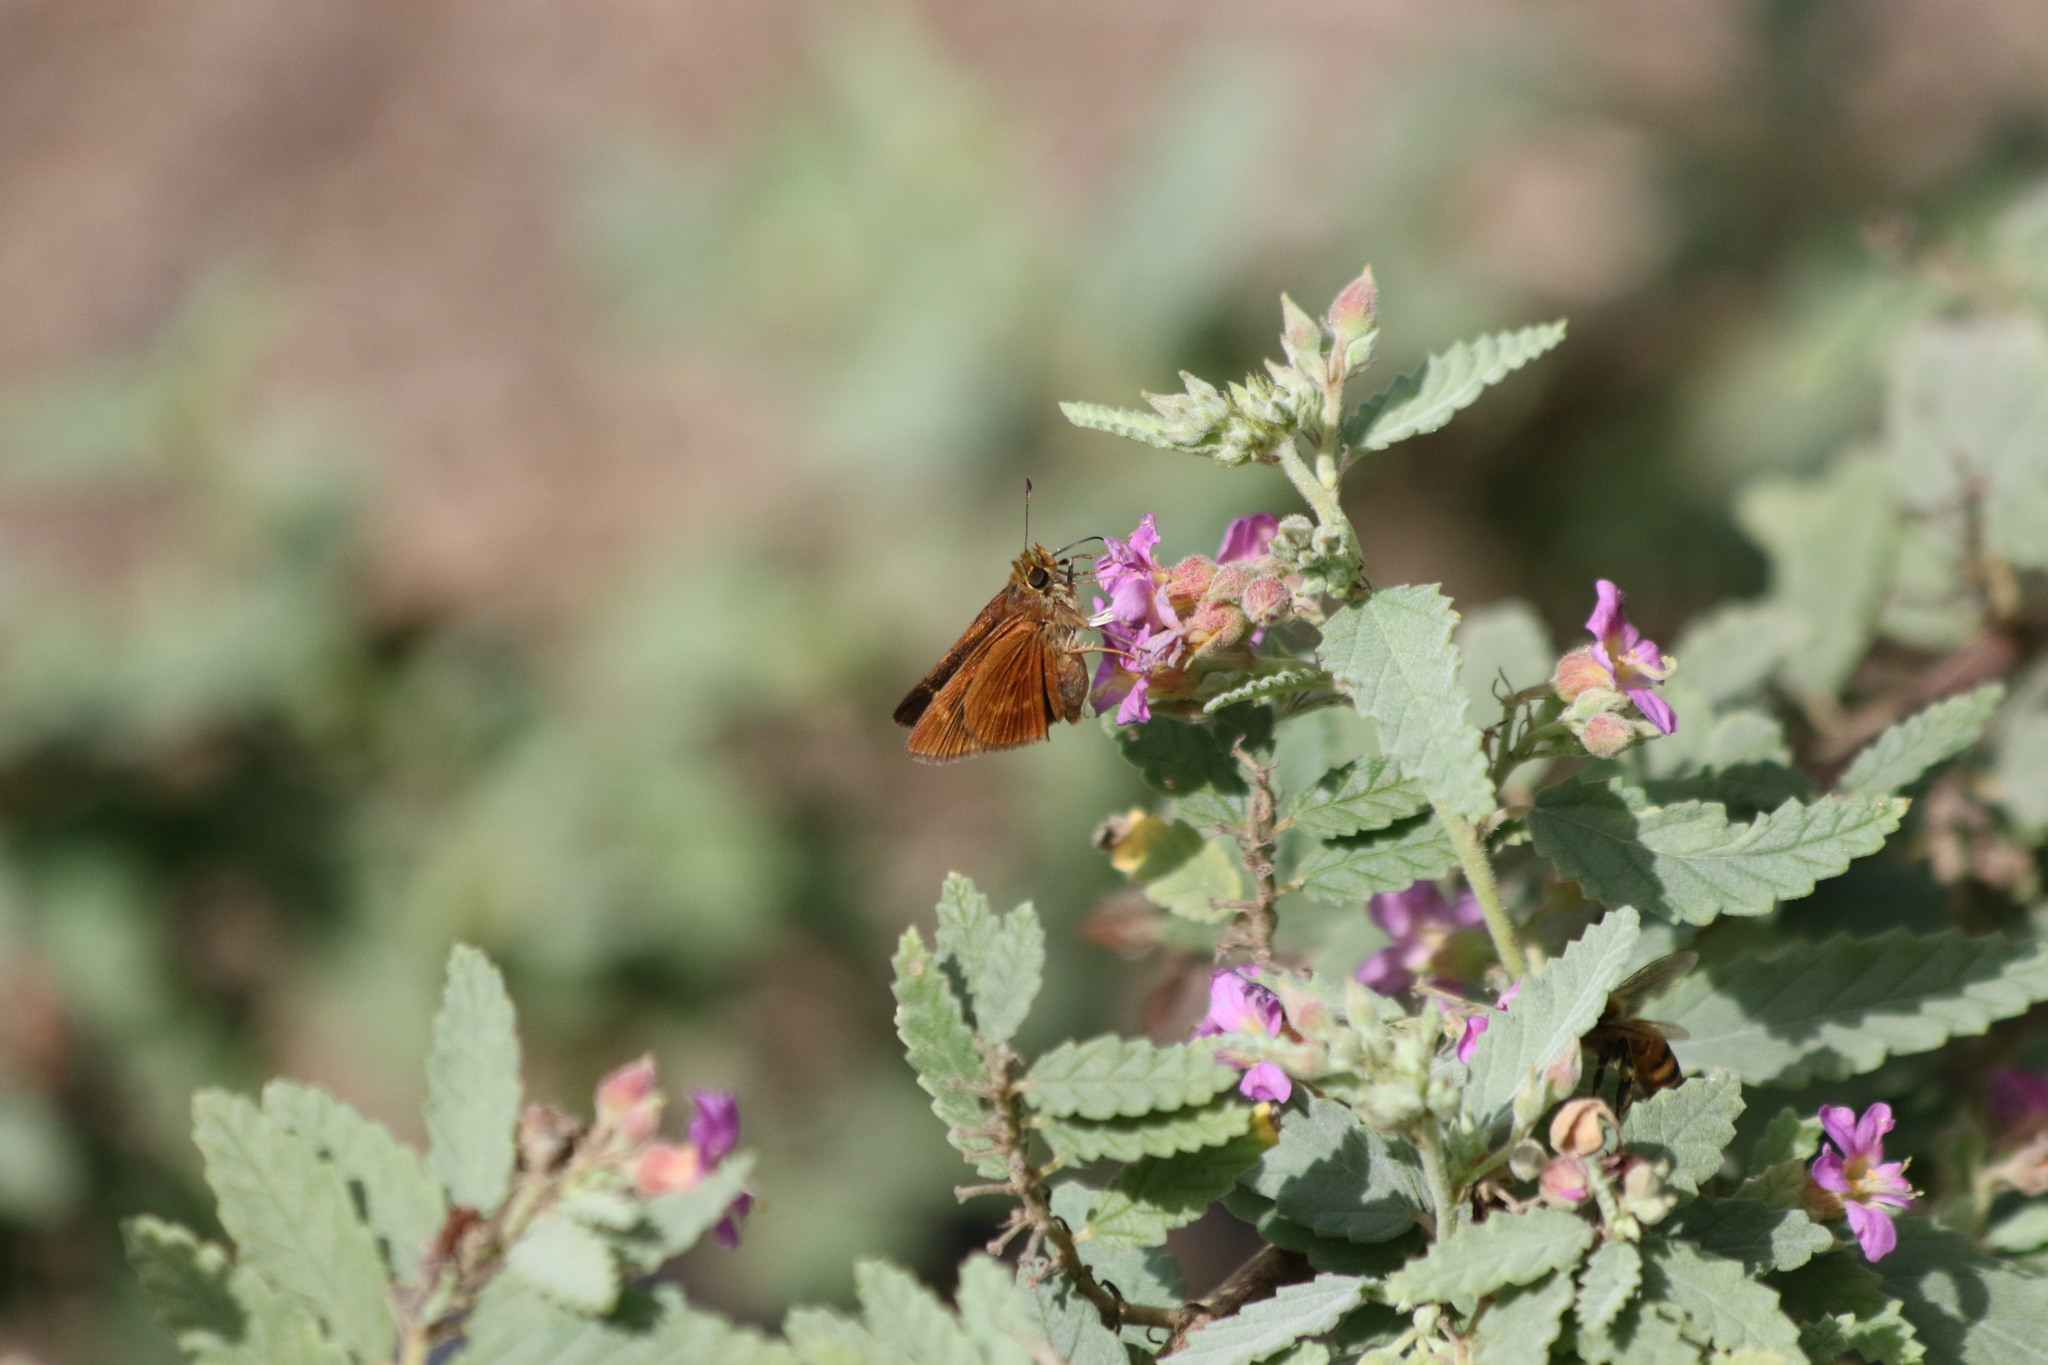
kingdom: Animalia
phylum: Arthropoda
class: Insecta
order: Lepidoptera
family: Hesperiidae
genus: Polites
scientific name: Polites otho
